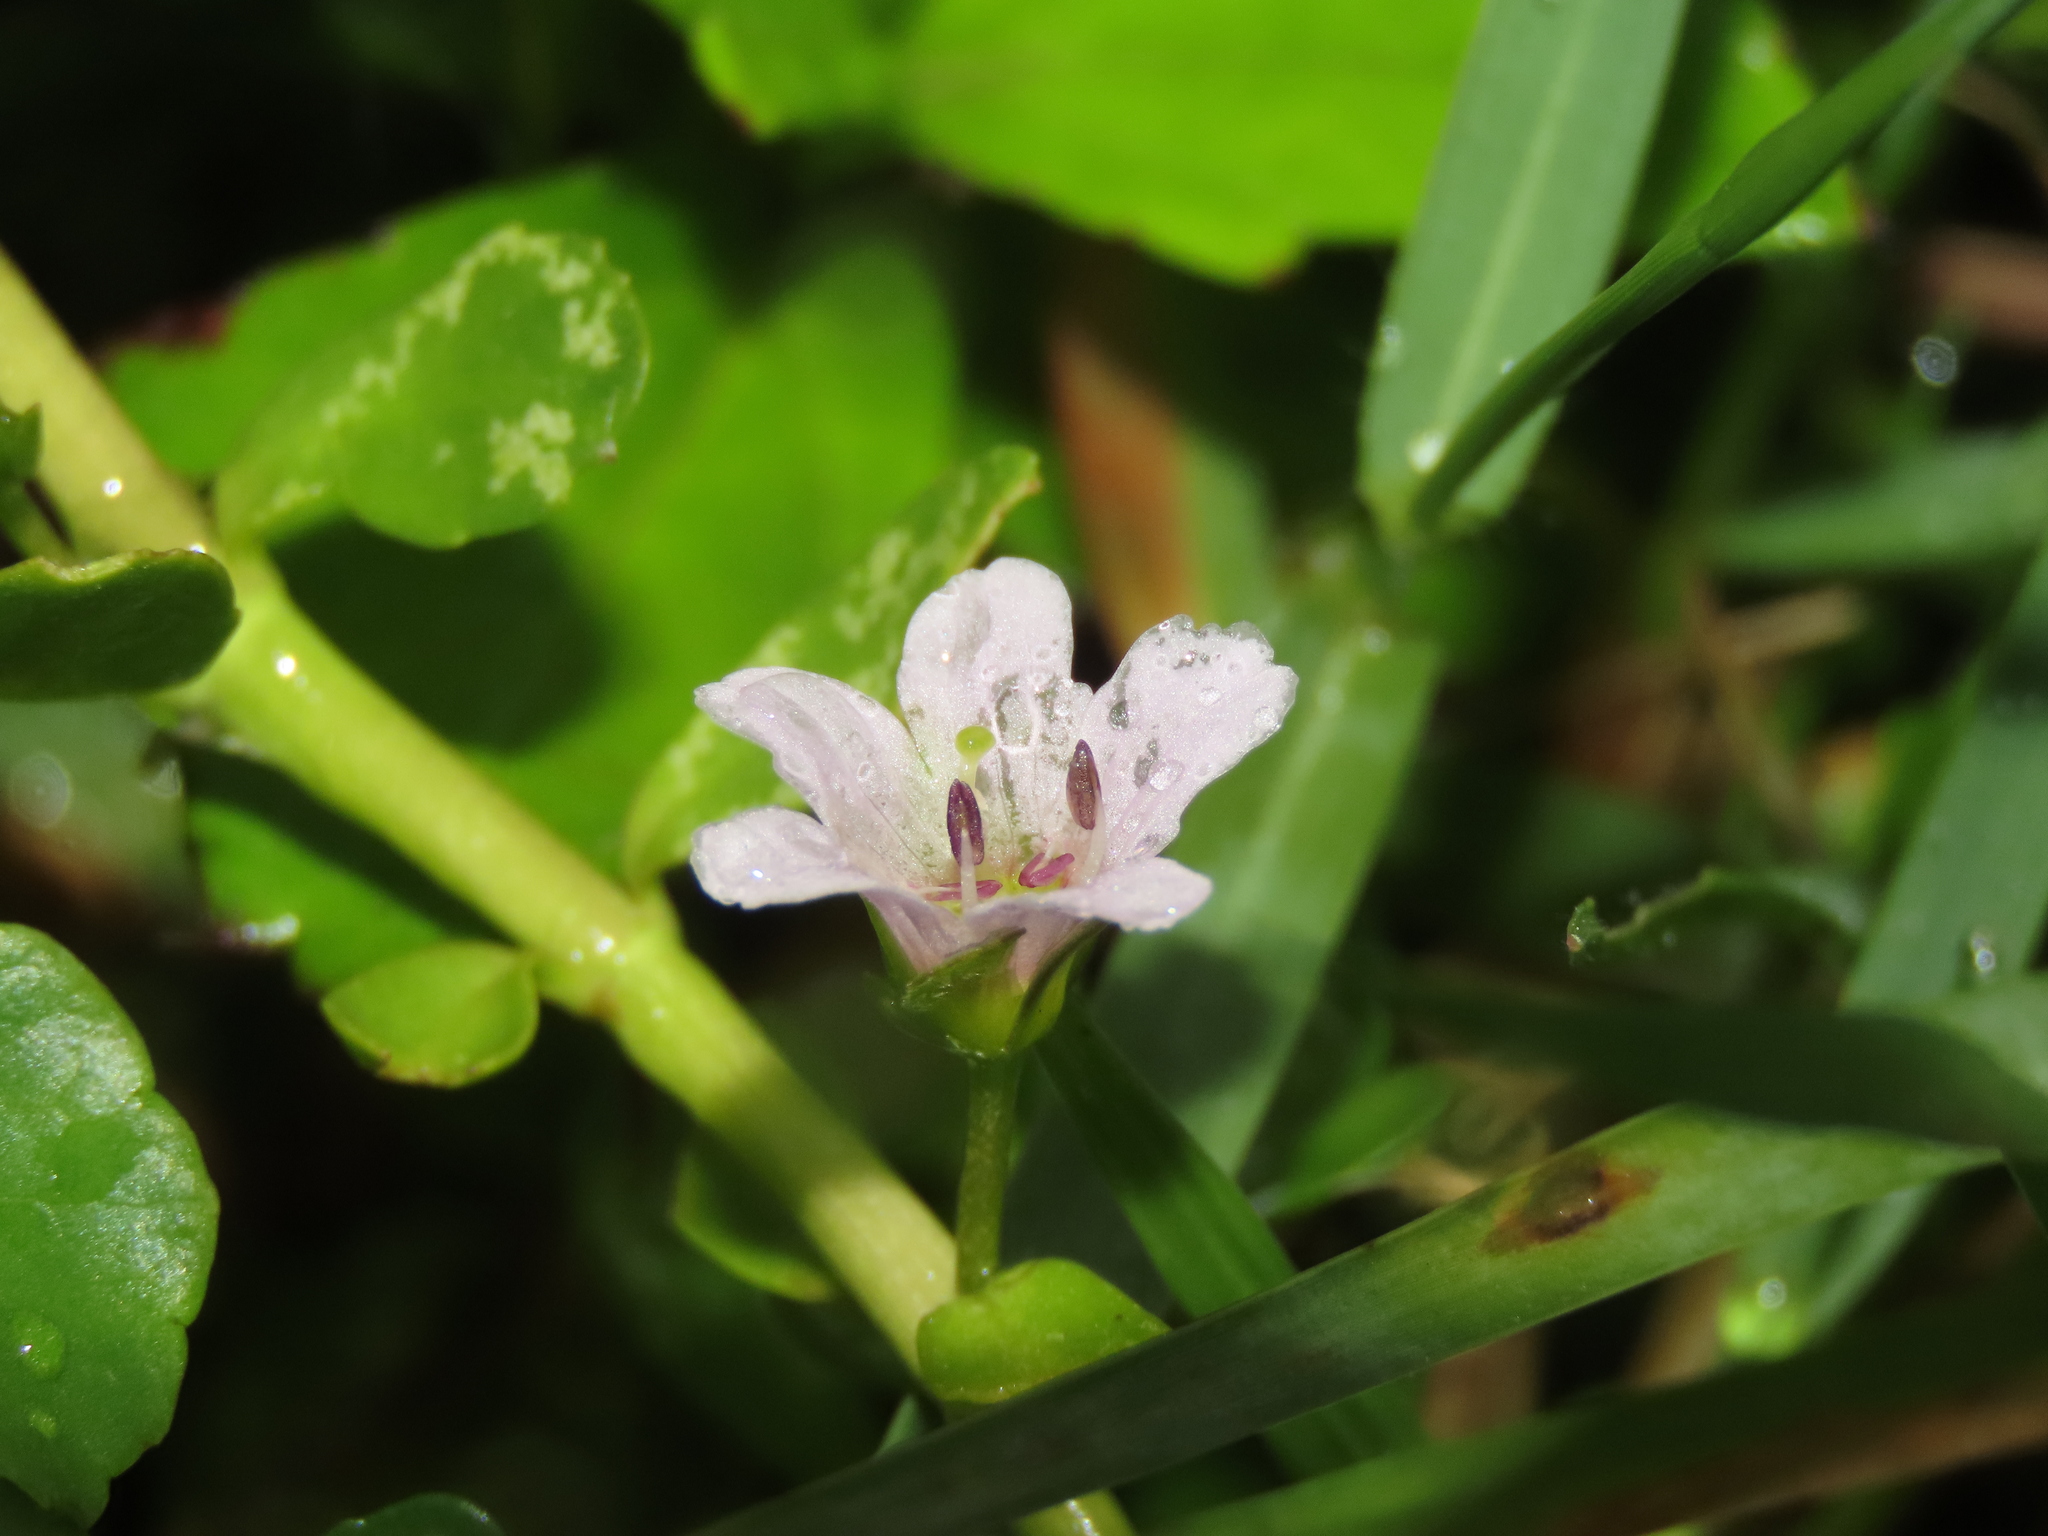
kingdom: Plantae
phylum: Tracheophyta
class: Magnoliopsida
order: Lamiales
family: Plantaginaceae
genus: Bacopa
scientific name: Bacopa monnieri
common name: Indian-pennywort
